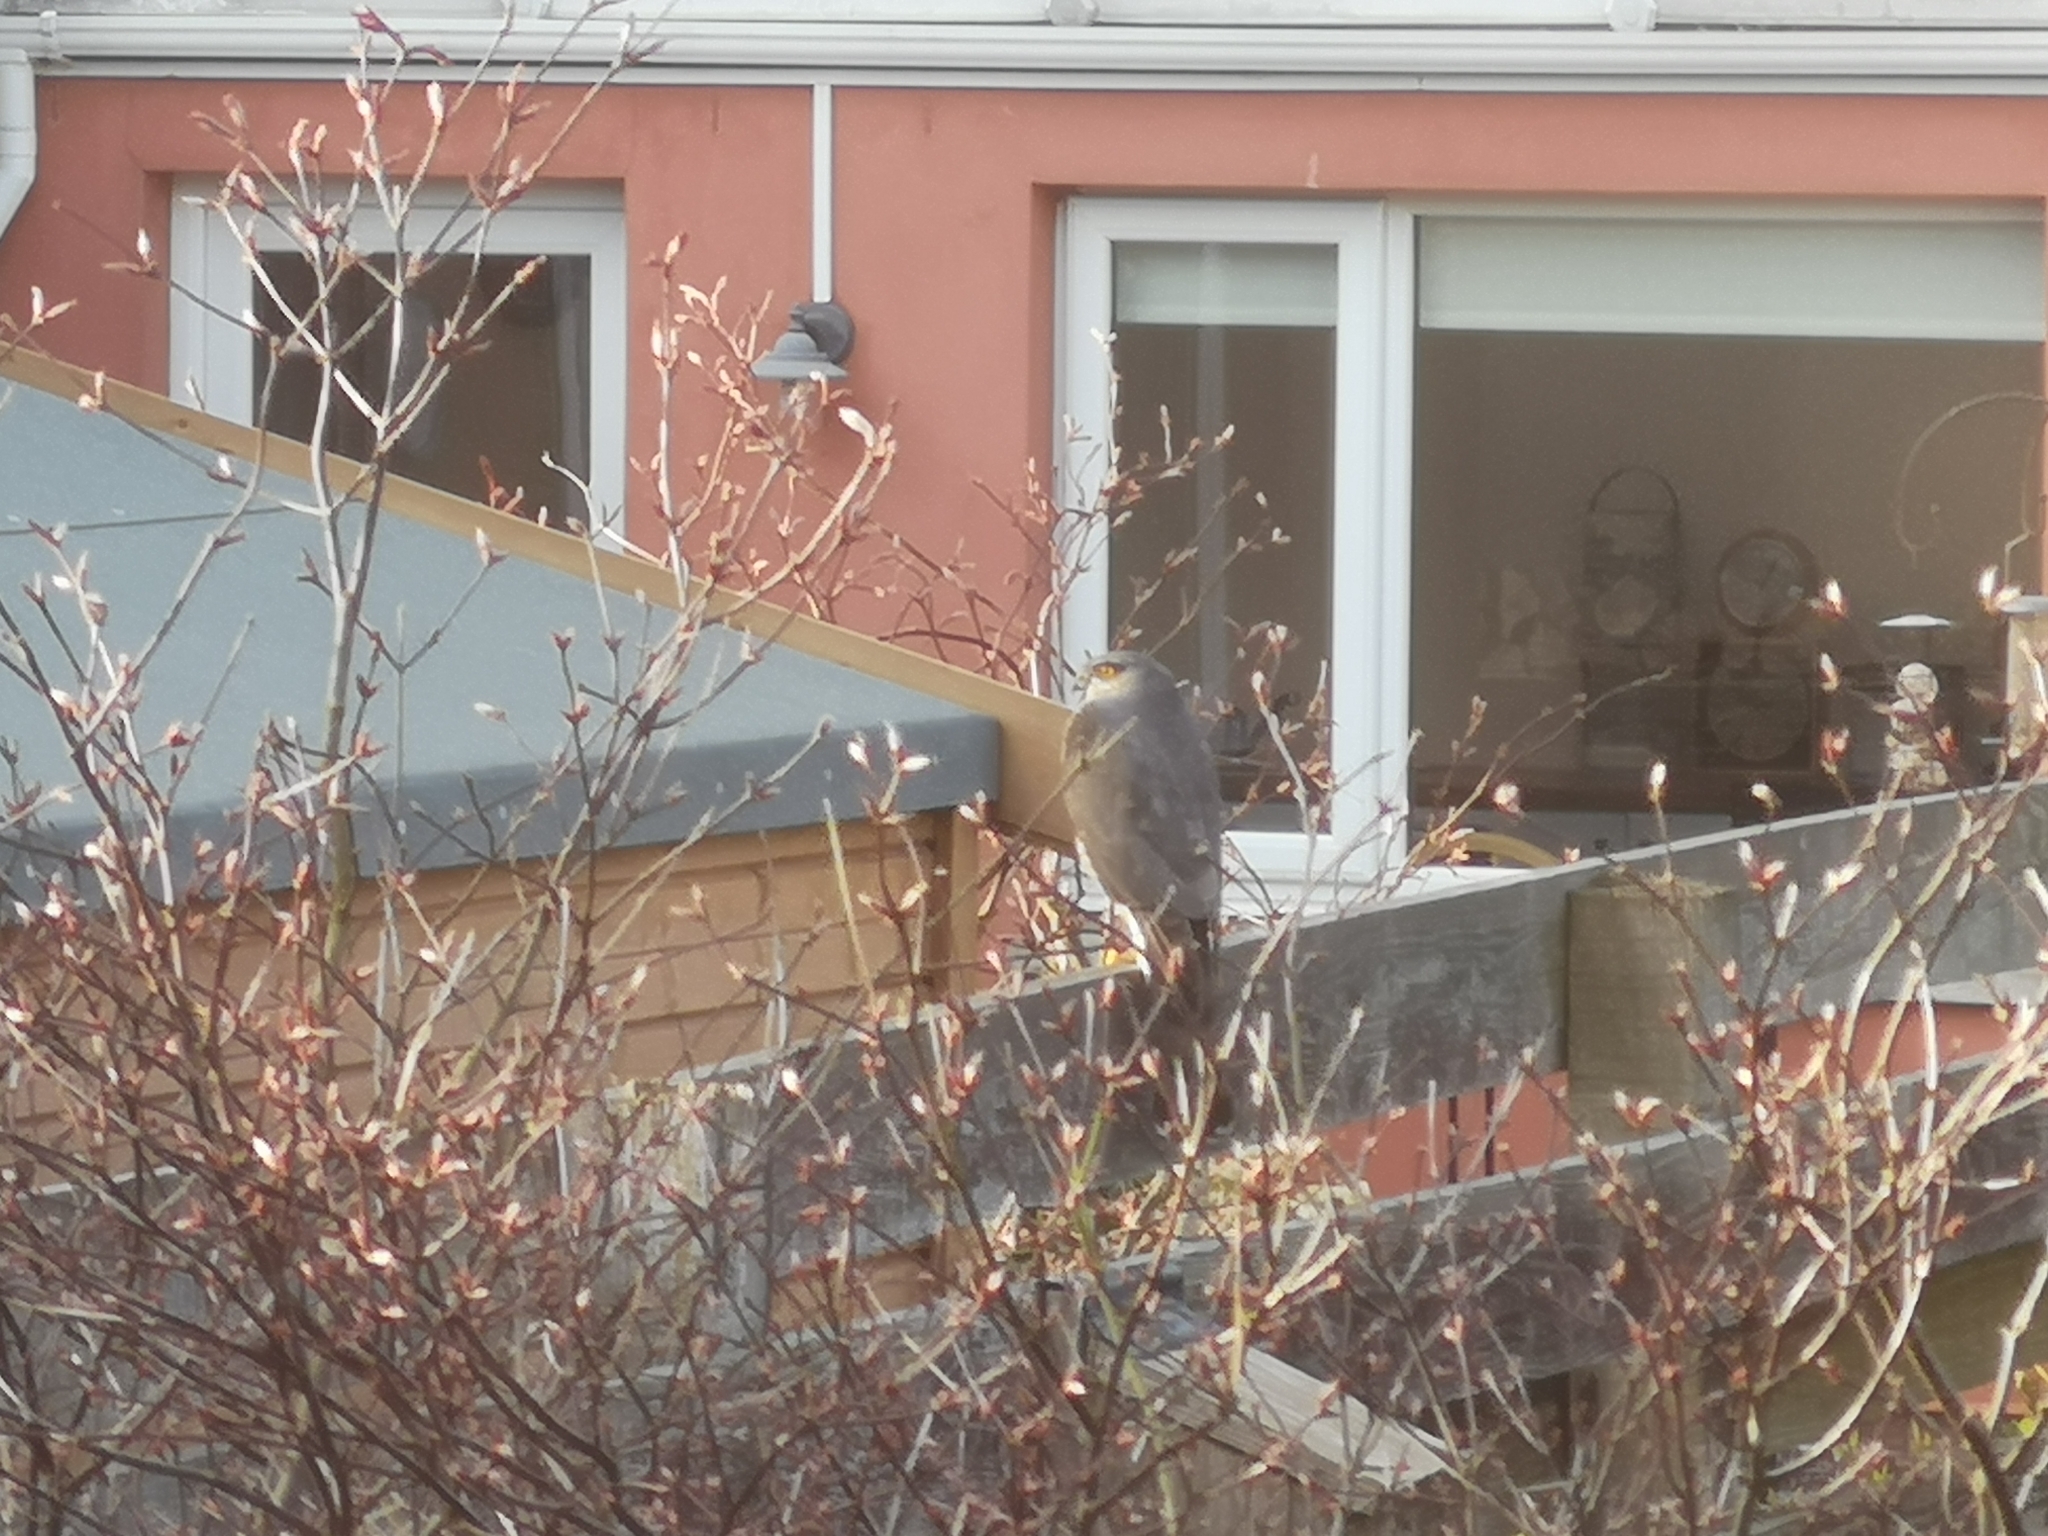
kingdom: Animalia
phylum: Chordata
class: Aves
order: Accipitriformes
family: Accipitridae
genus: Accipiter
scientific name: Accipiter nisus
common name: Eurasian sparrowhawk
